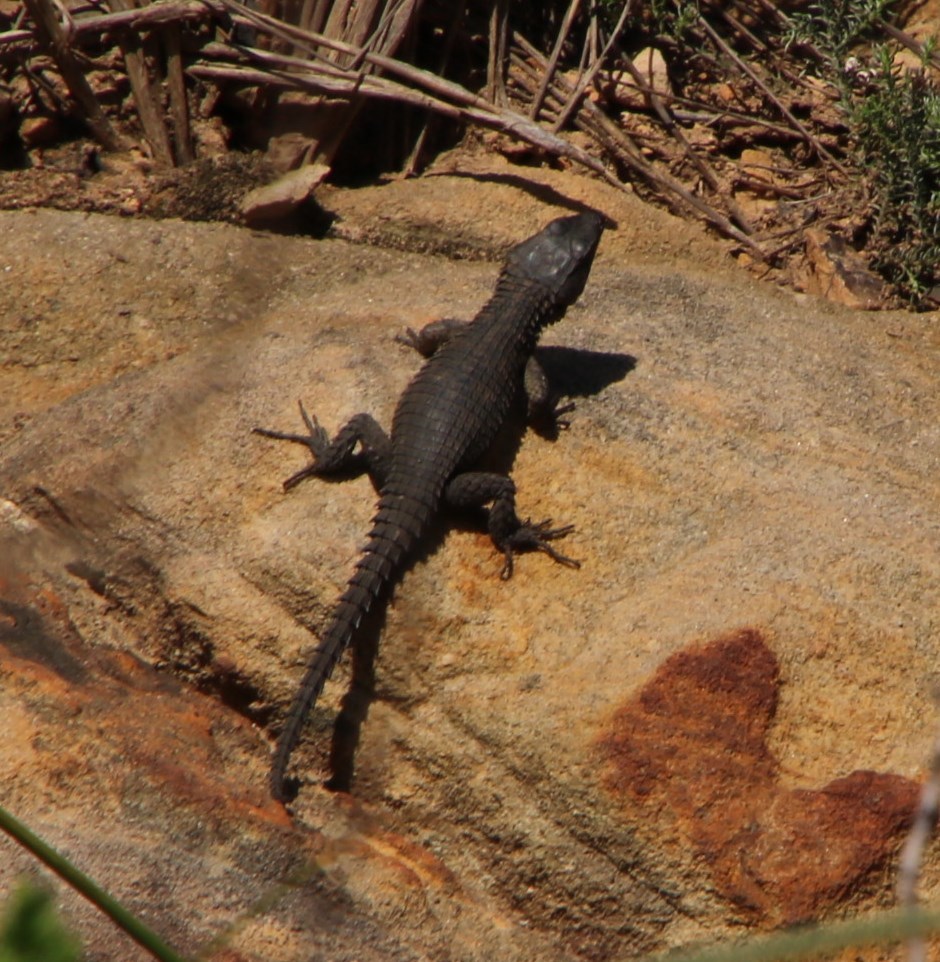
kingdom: Animalia
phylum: Chordata
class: Squamata
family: Cordylidae
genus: Cordylus
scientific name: Cordylus niger
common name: Black girdled lizard
